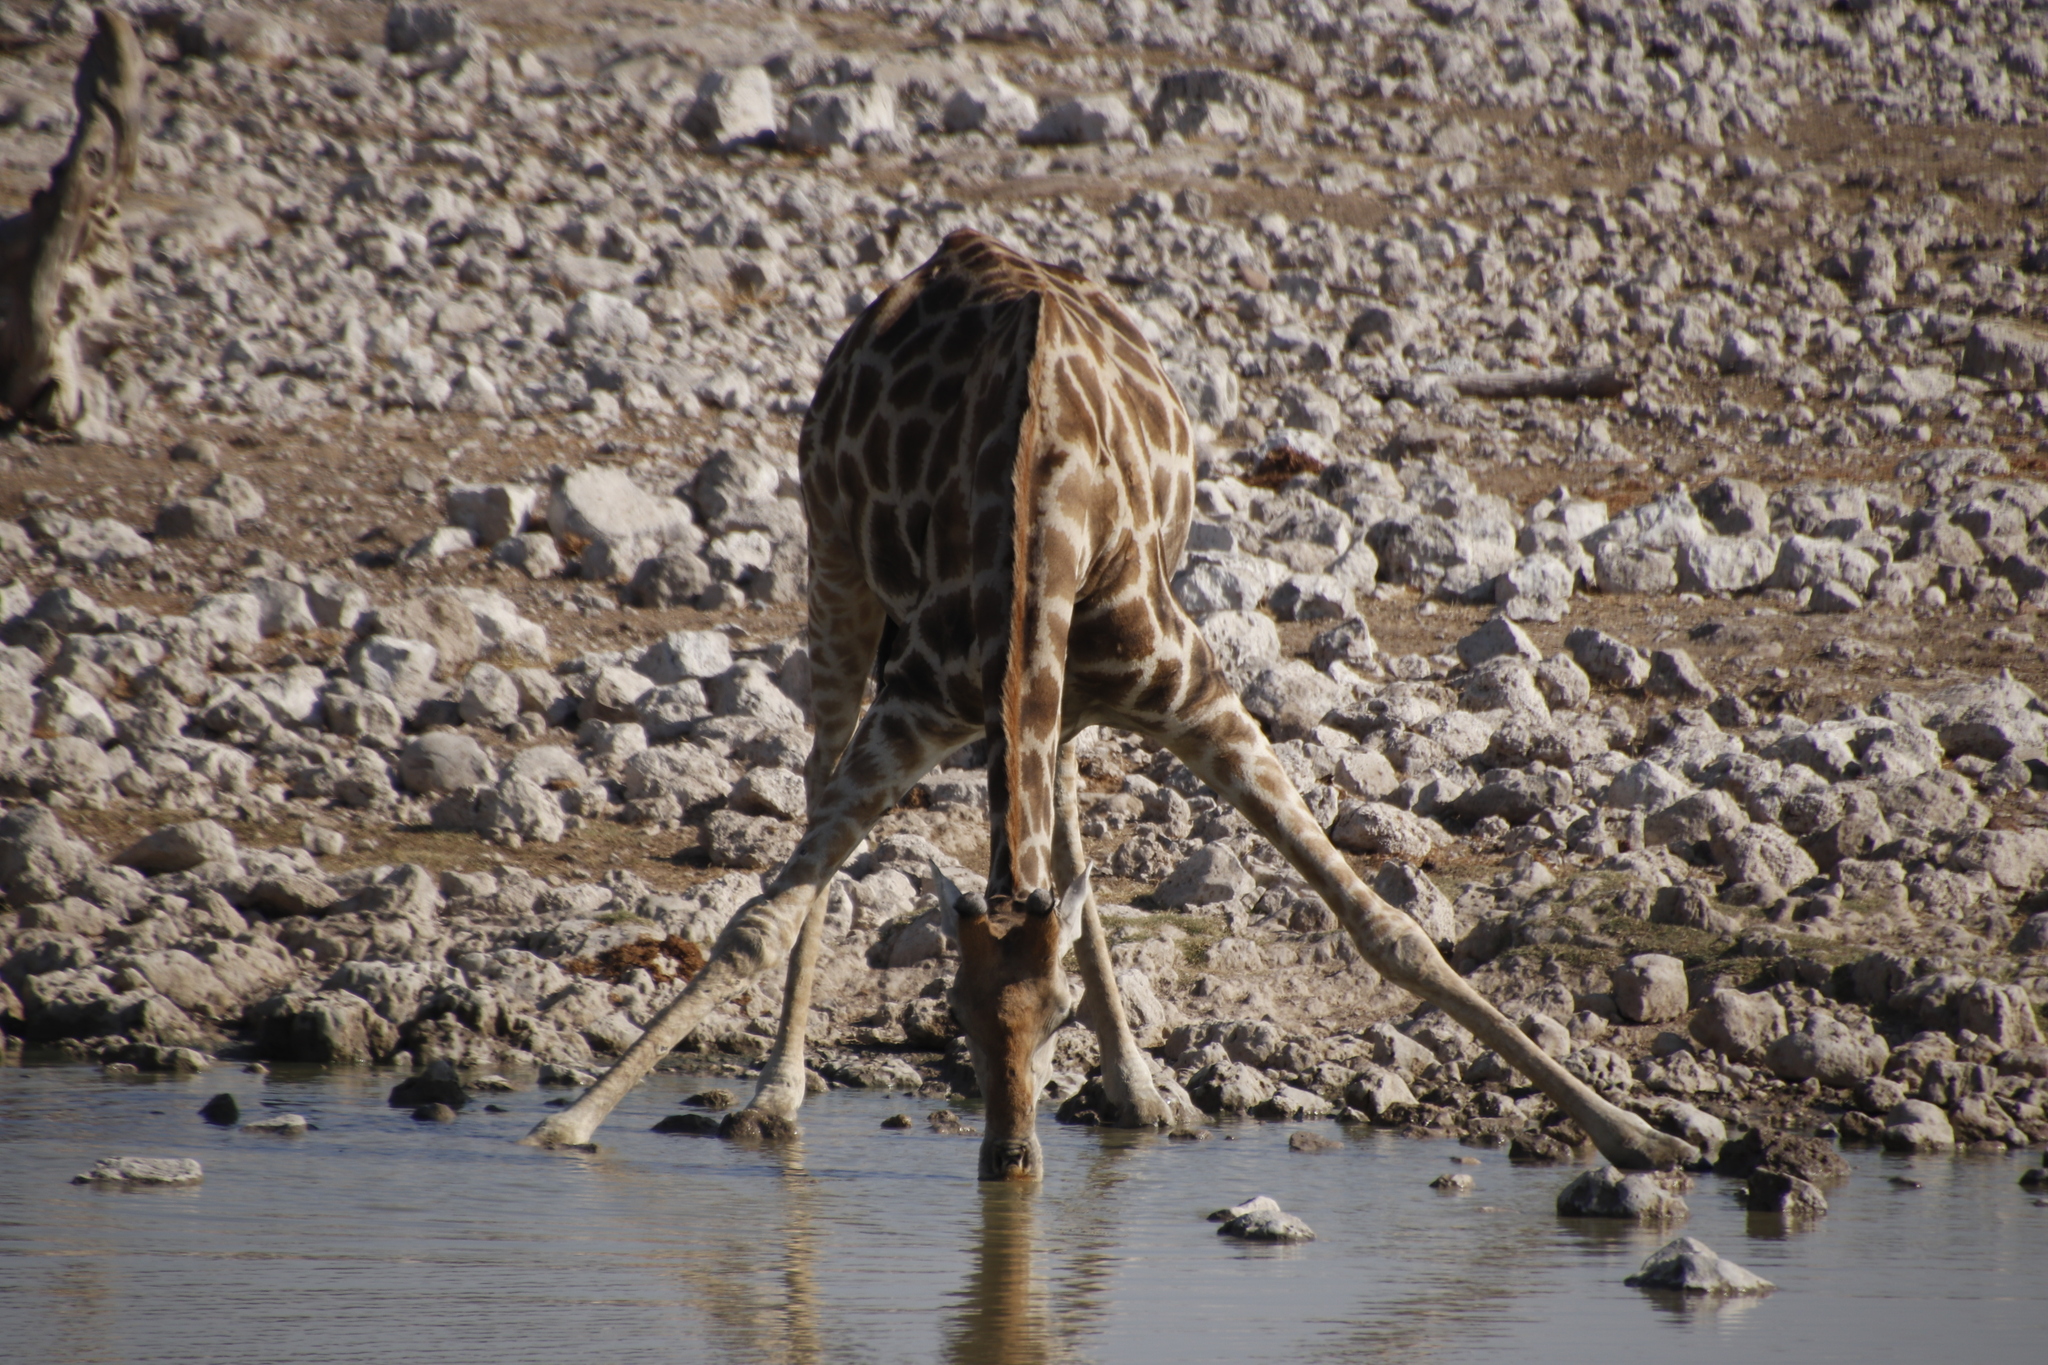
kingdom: Animalia
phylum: Chordata
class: Mammalia
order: Artiodactyla
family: Giraffidae
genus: Giraffa
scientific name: Giraffa giraffa
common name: Southern giraffe
